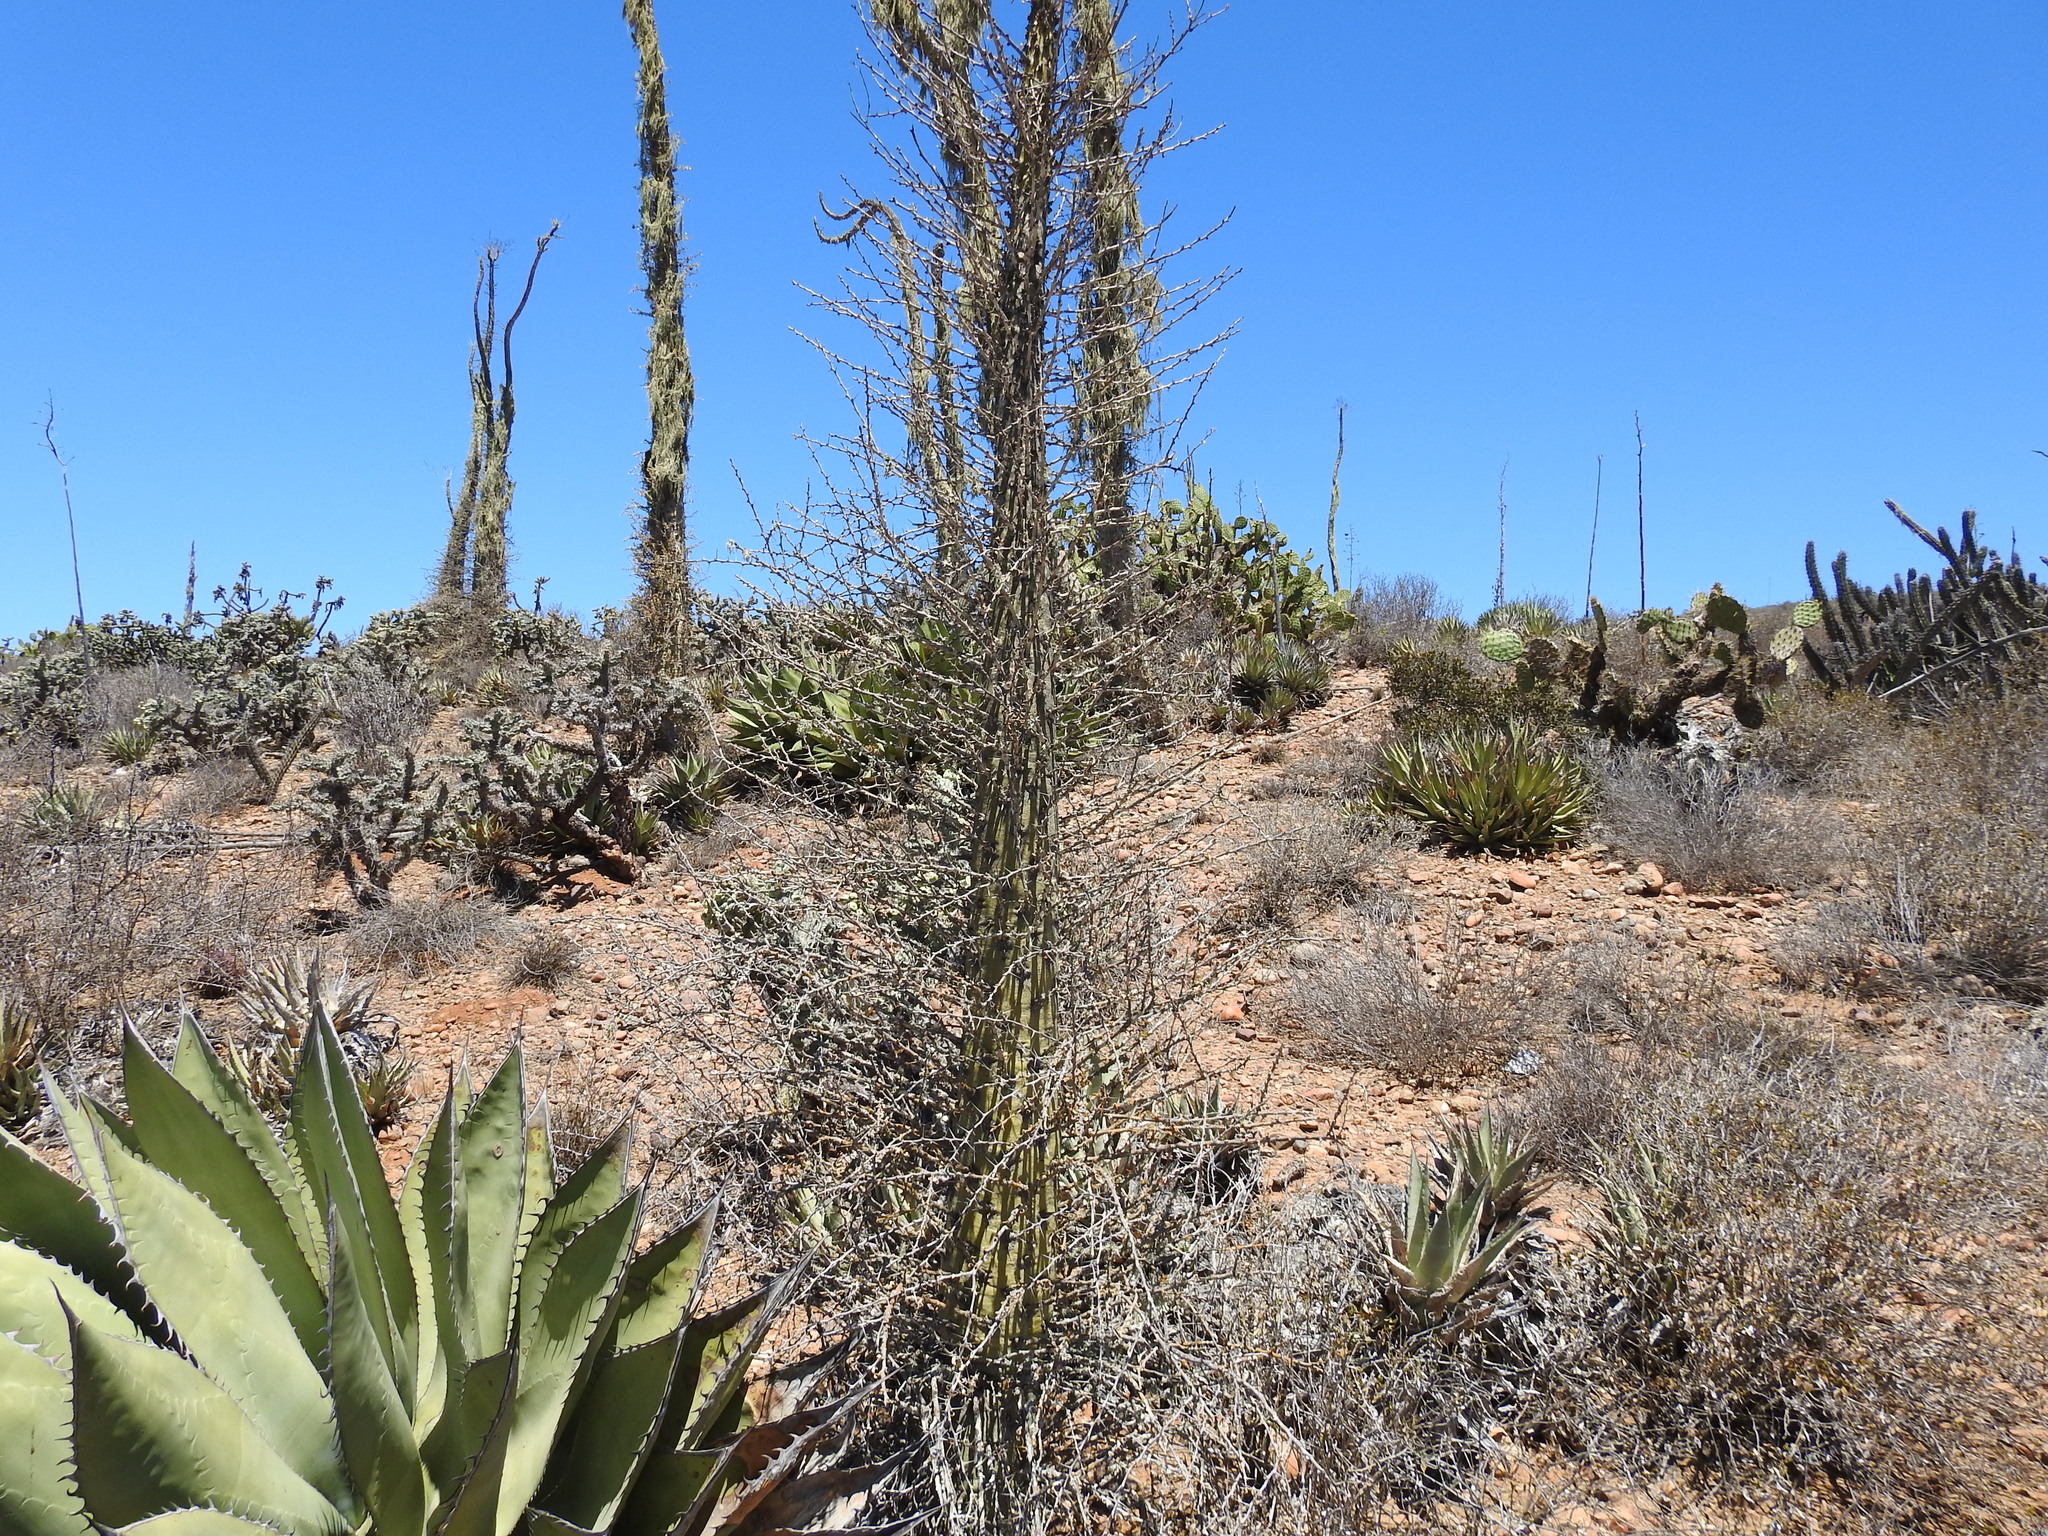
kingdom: Plantae
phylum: Tracheophyta
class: Magnoliopsida
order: Ericales
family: Fouquieriaceae
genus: Fouquieria
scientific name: Fouquieria columnaris
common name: Boojumtree
